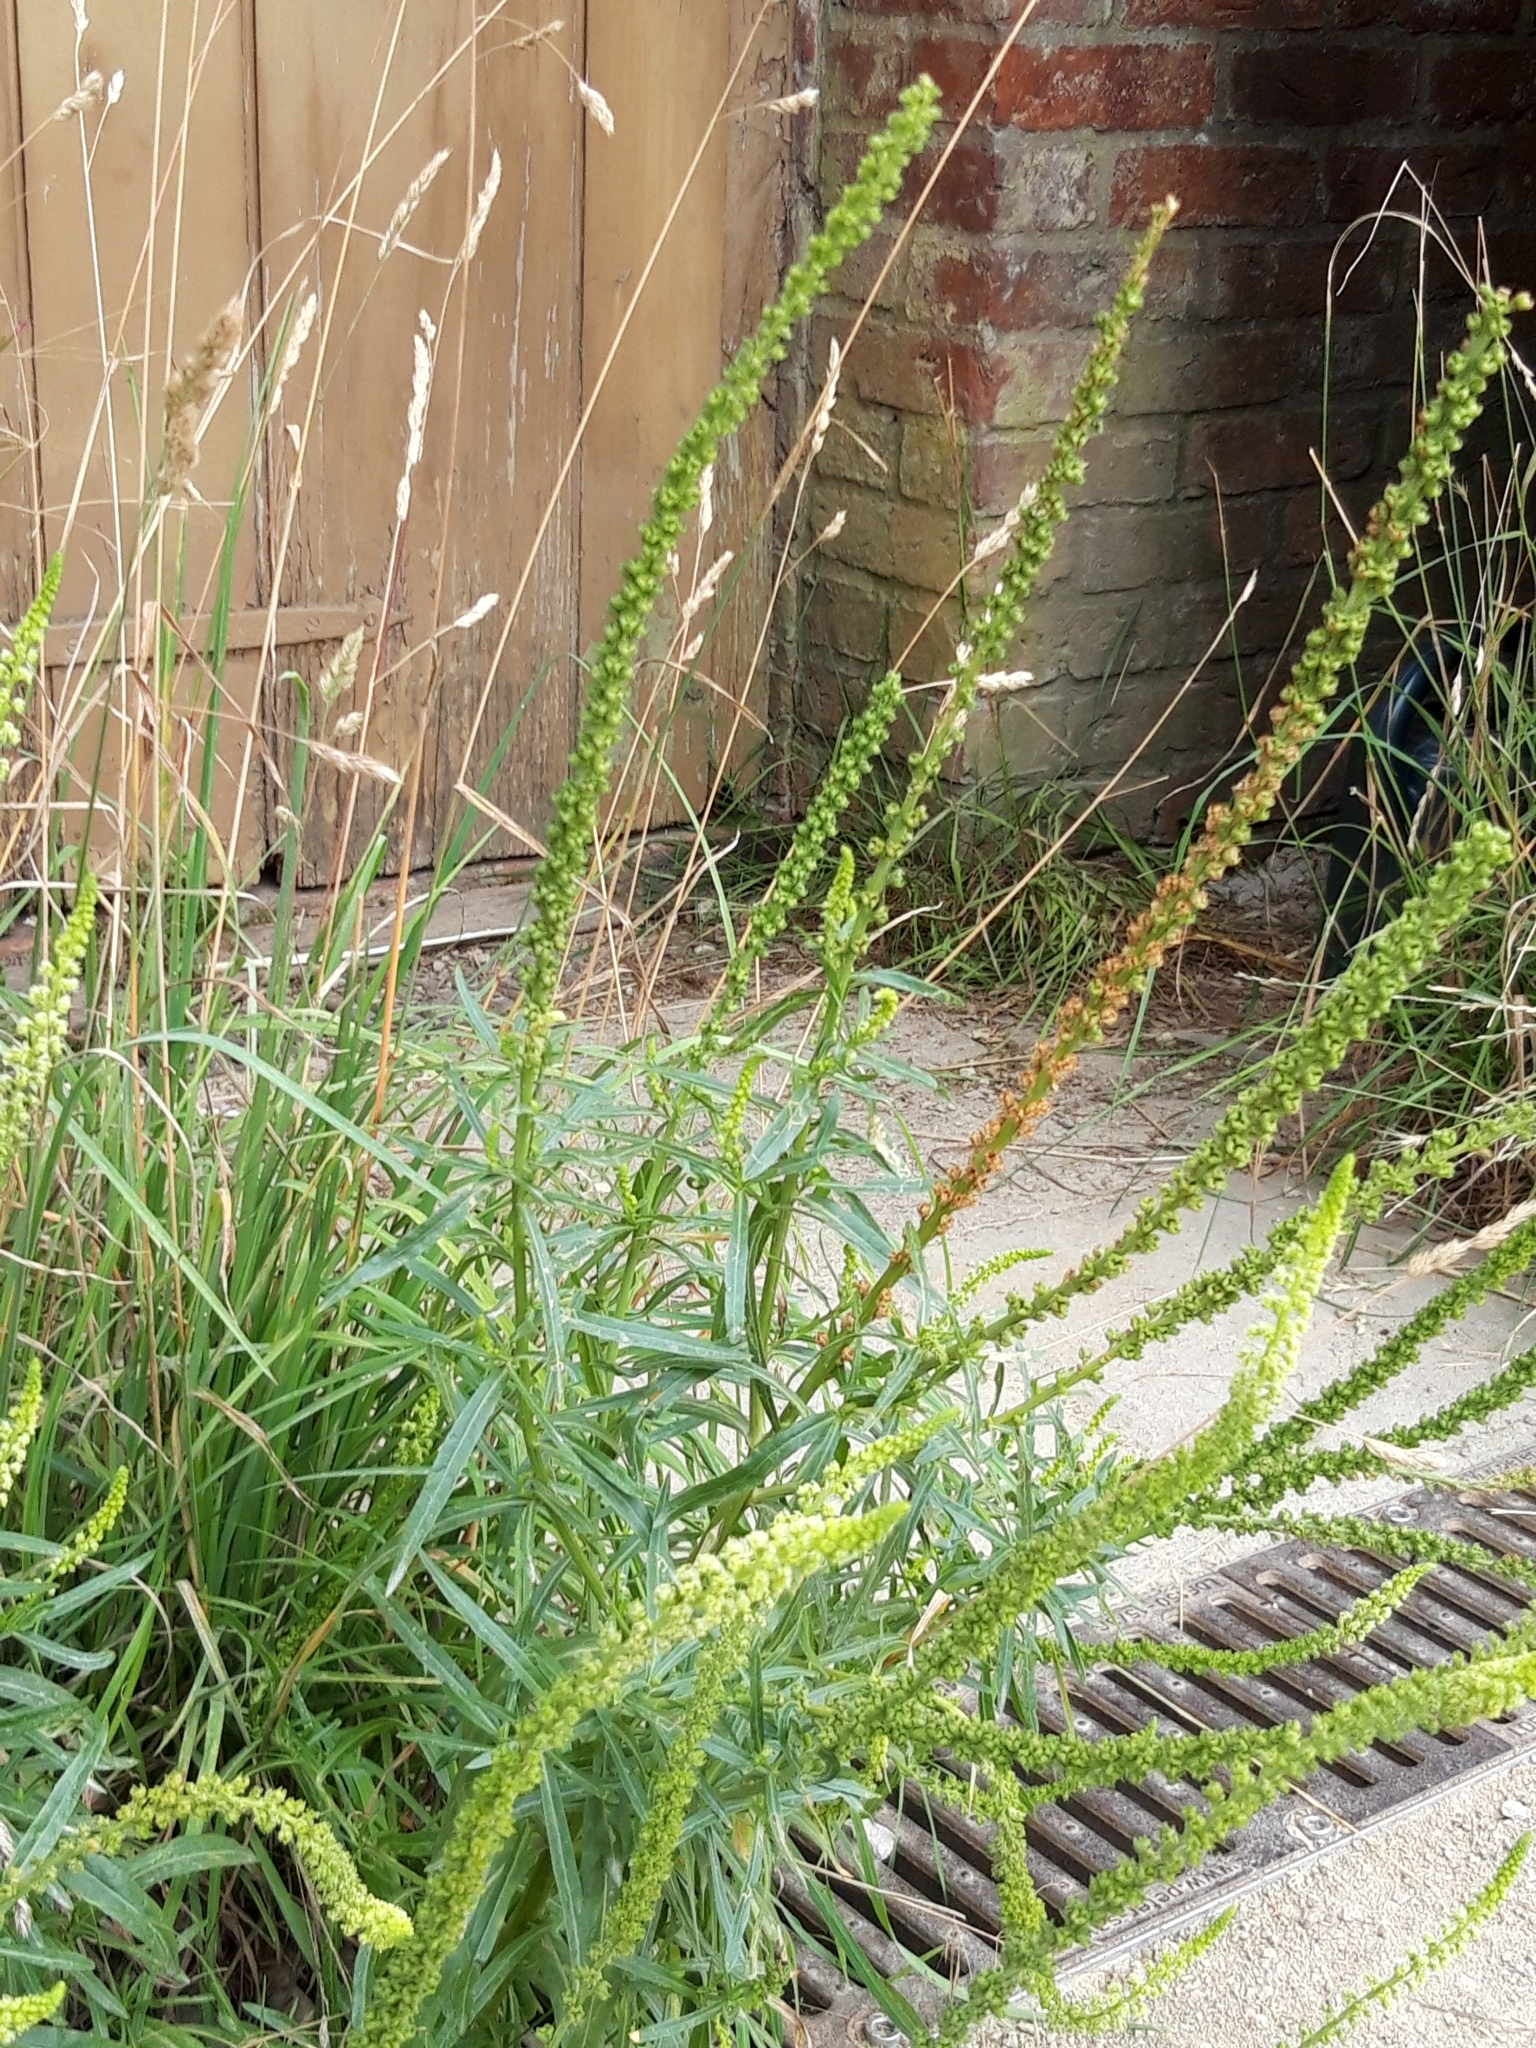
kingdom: Plantae
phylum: Tracheophyta
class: Magnoliopsida
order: Brassicales
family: Resedaceae
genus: Reseda
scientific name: Reseda luteola
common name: Weld
